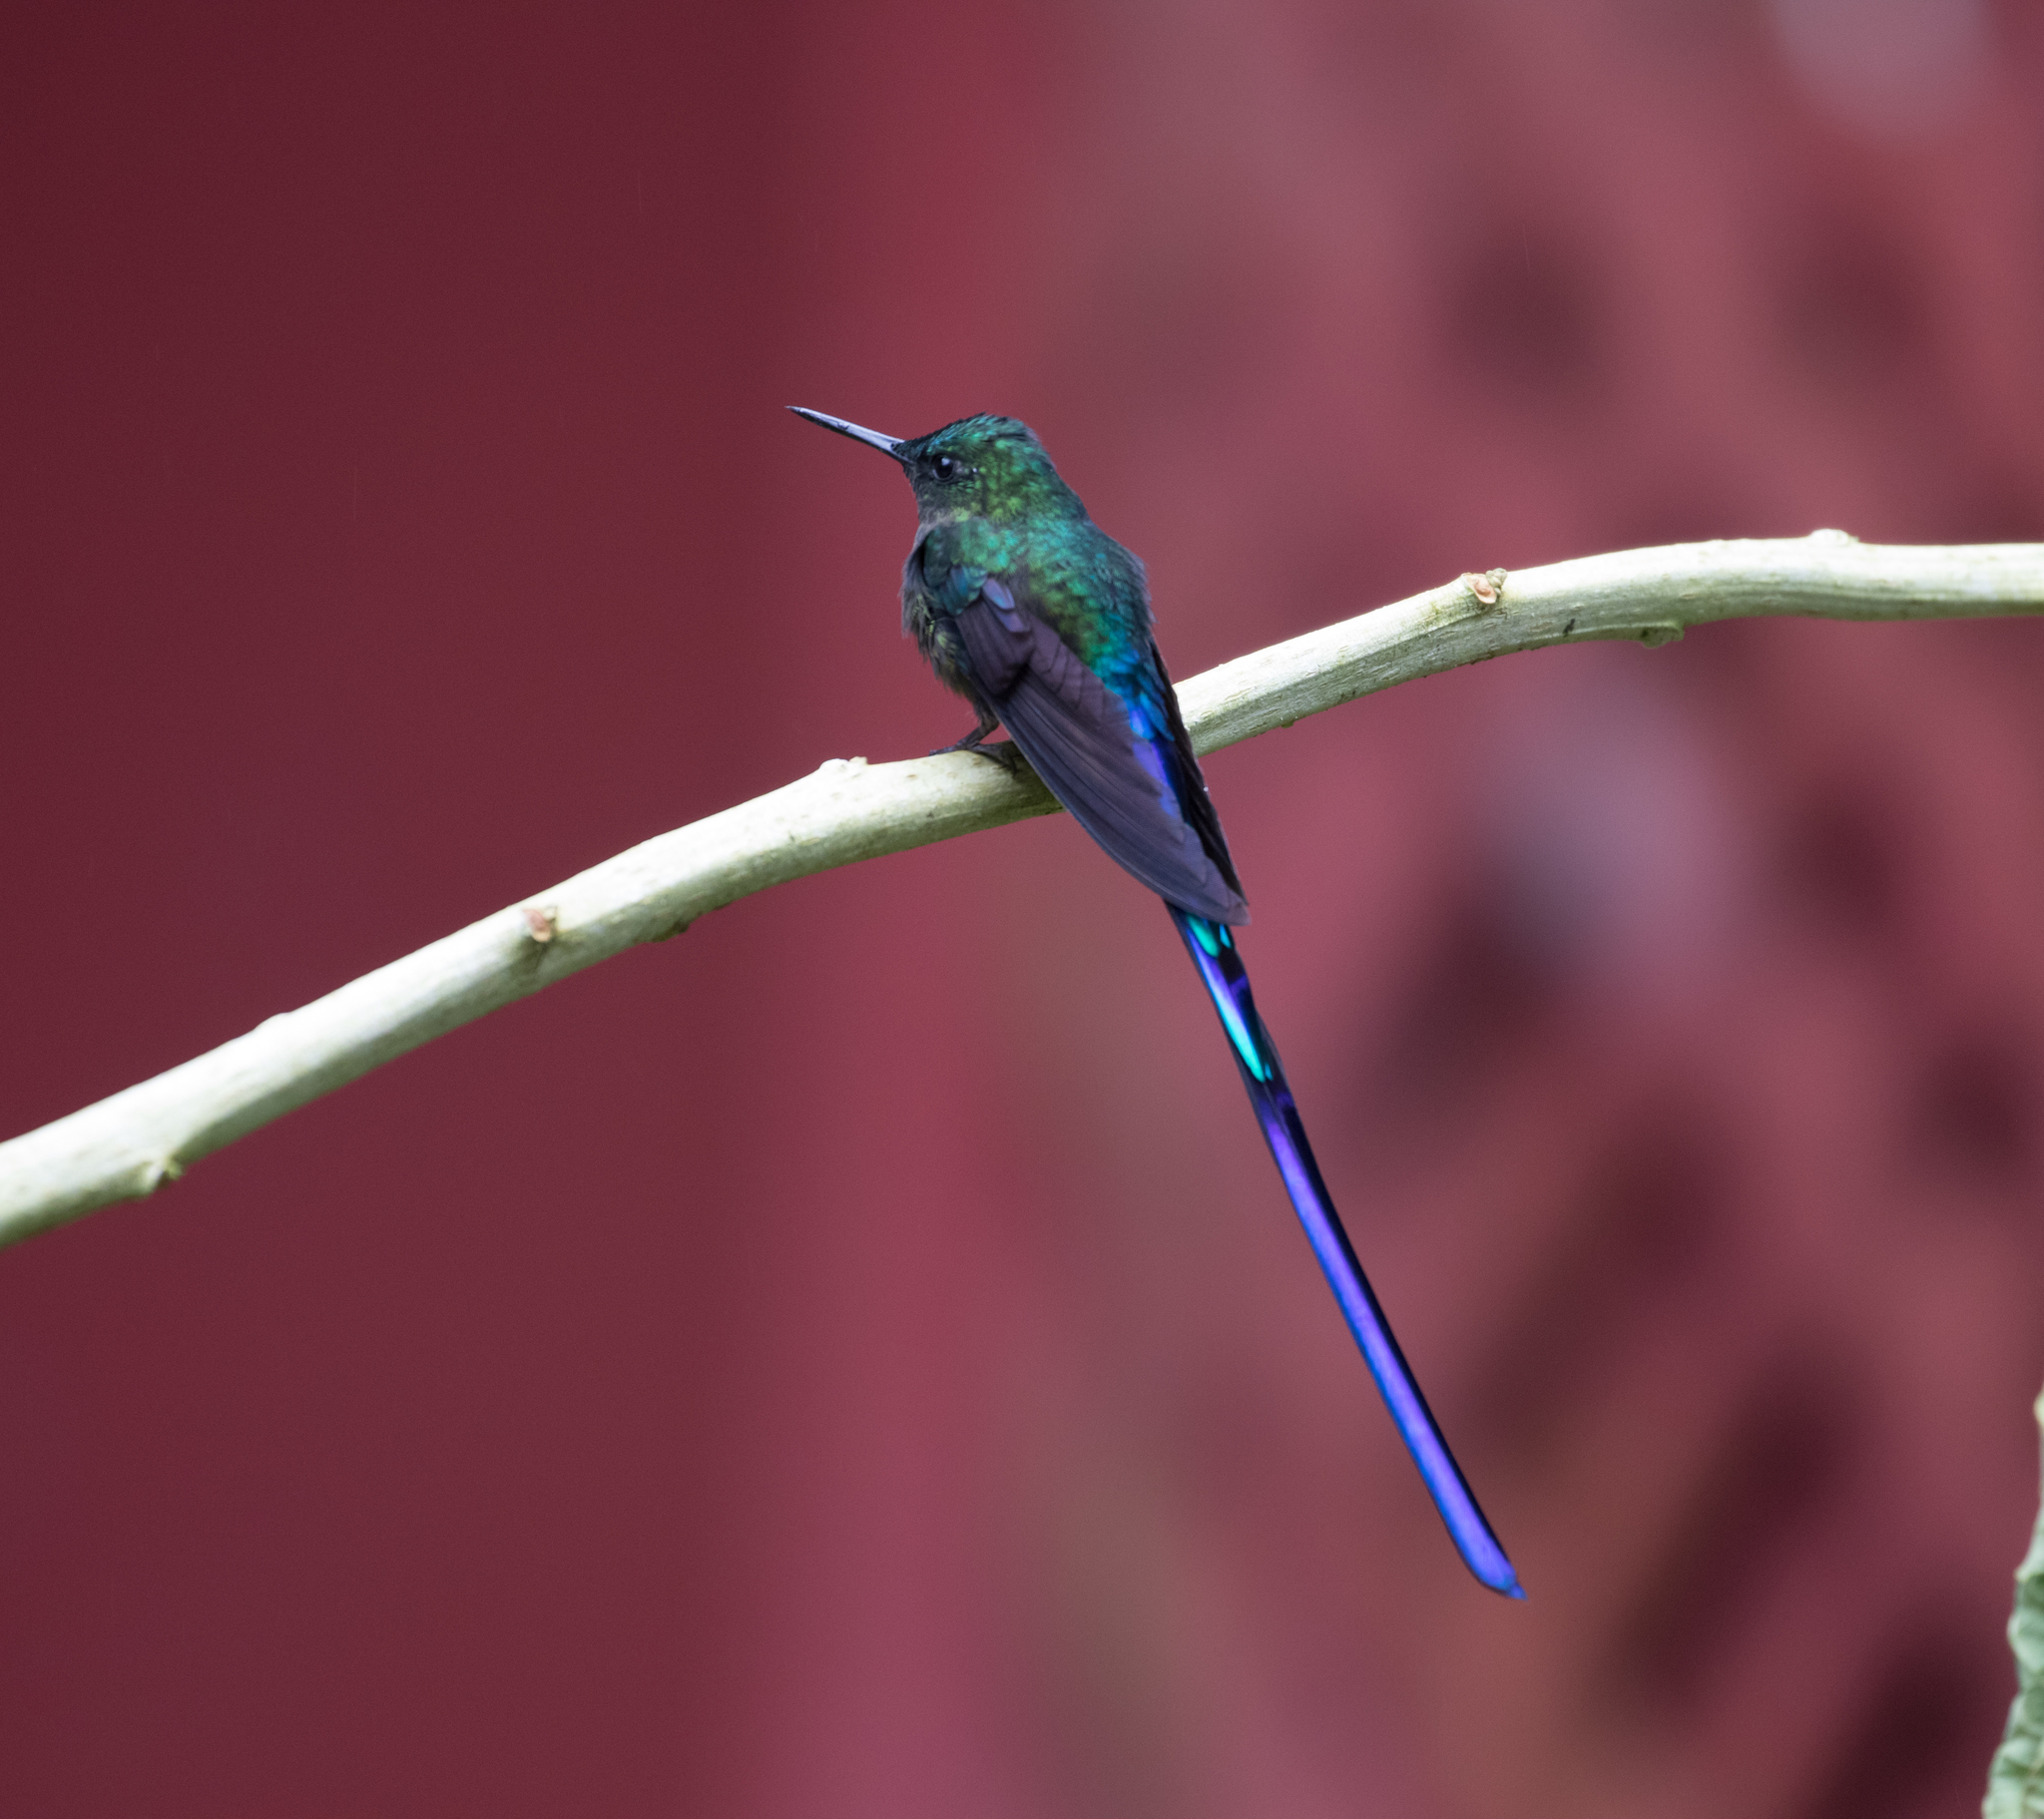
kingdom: Animalia
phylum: Chordata
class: Aves
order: Apodiformes
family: Trochilidae
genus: Aglaiocercus
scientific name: Aglaiocercus coelestis
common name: Violet-tailed sylph
